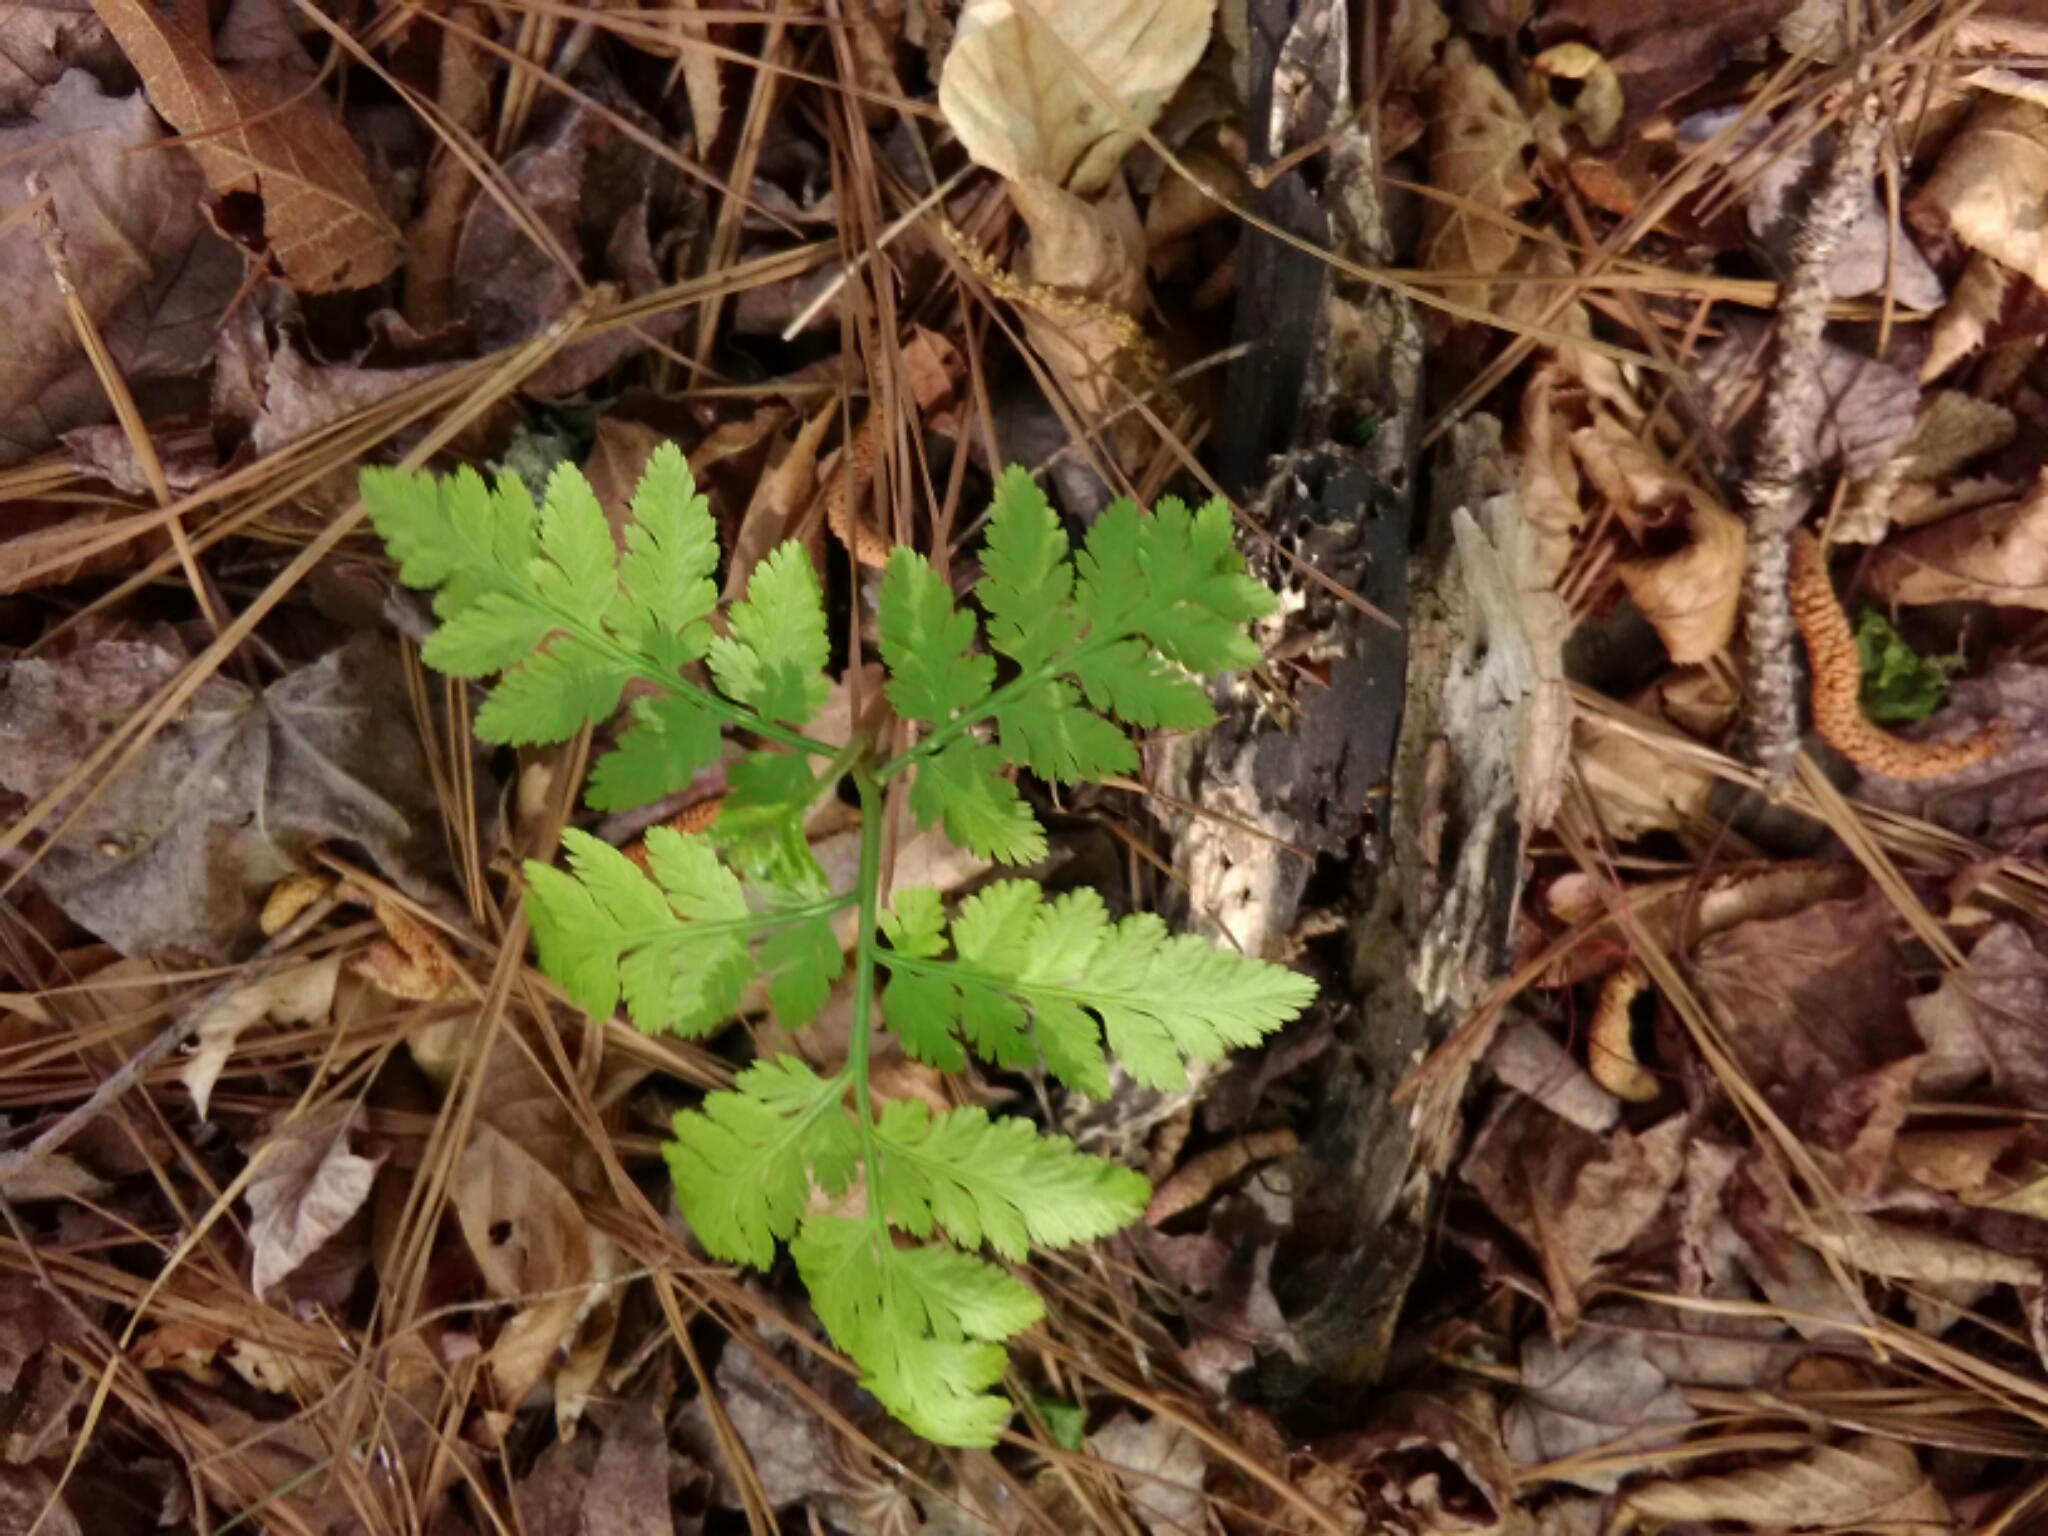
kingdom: Plantae
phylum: Tracheophyta
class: Polypodiopsida
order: Ophioglossales
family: Ophioglossaceae
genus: Botrypus
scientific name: Botrypus virginianus
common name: Common grapefern
